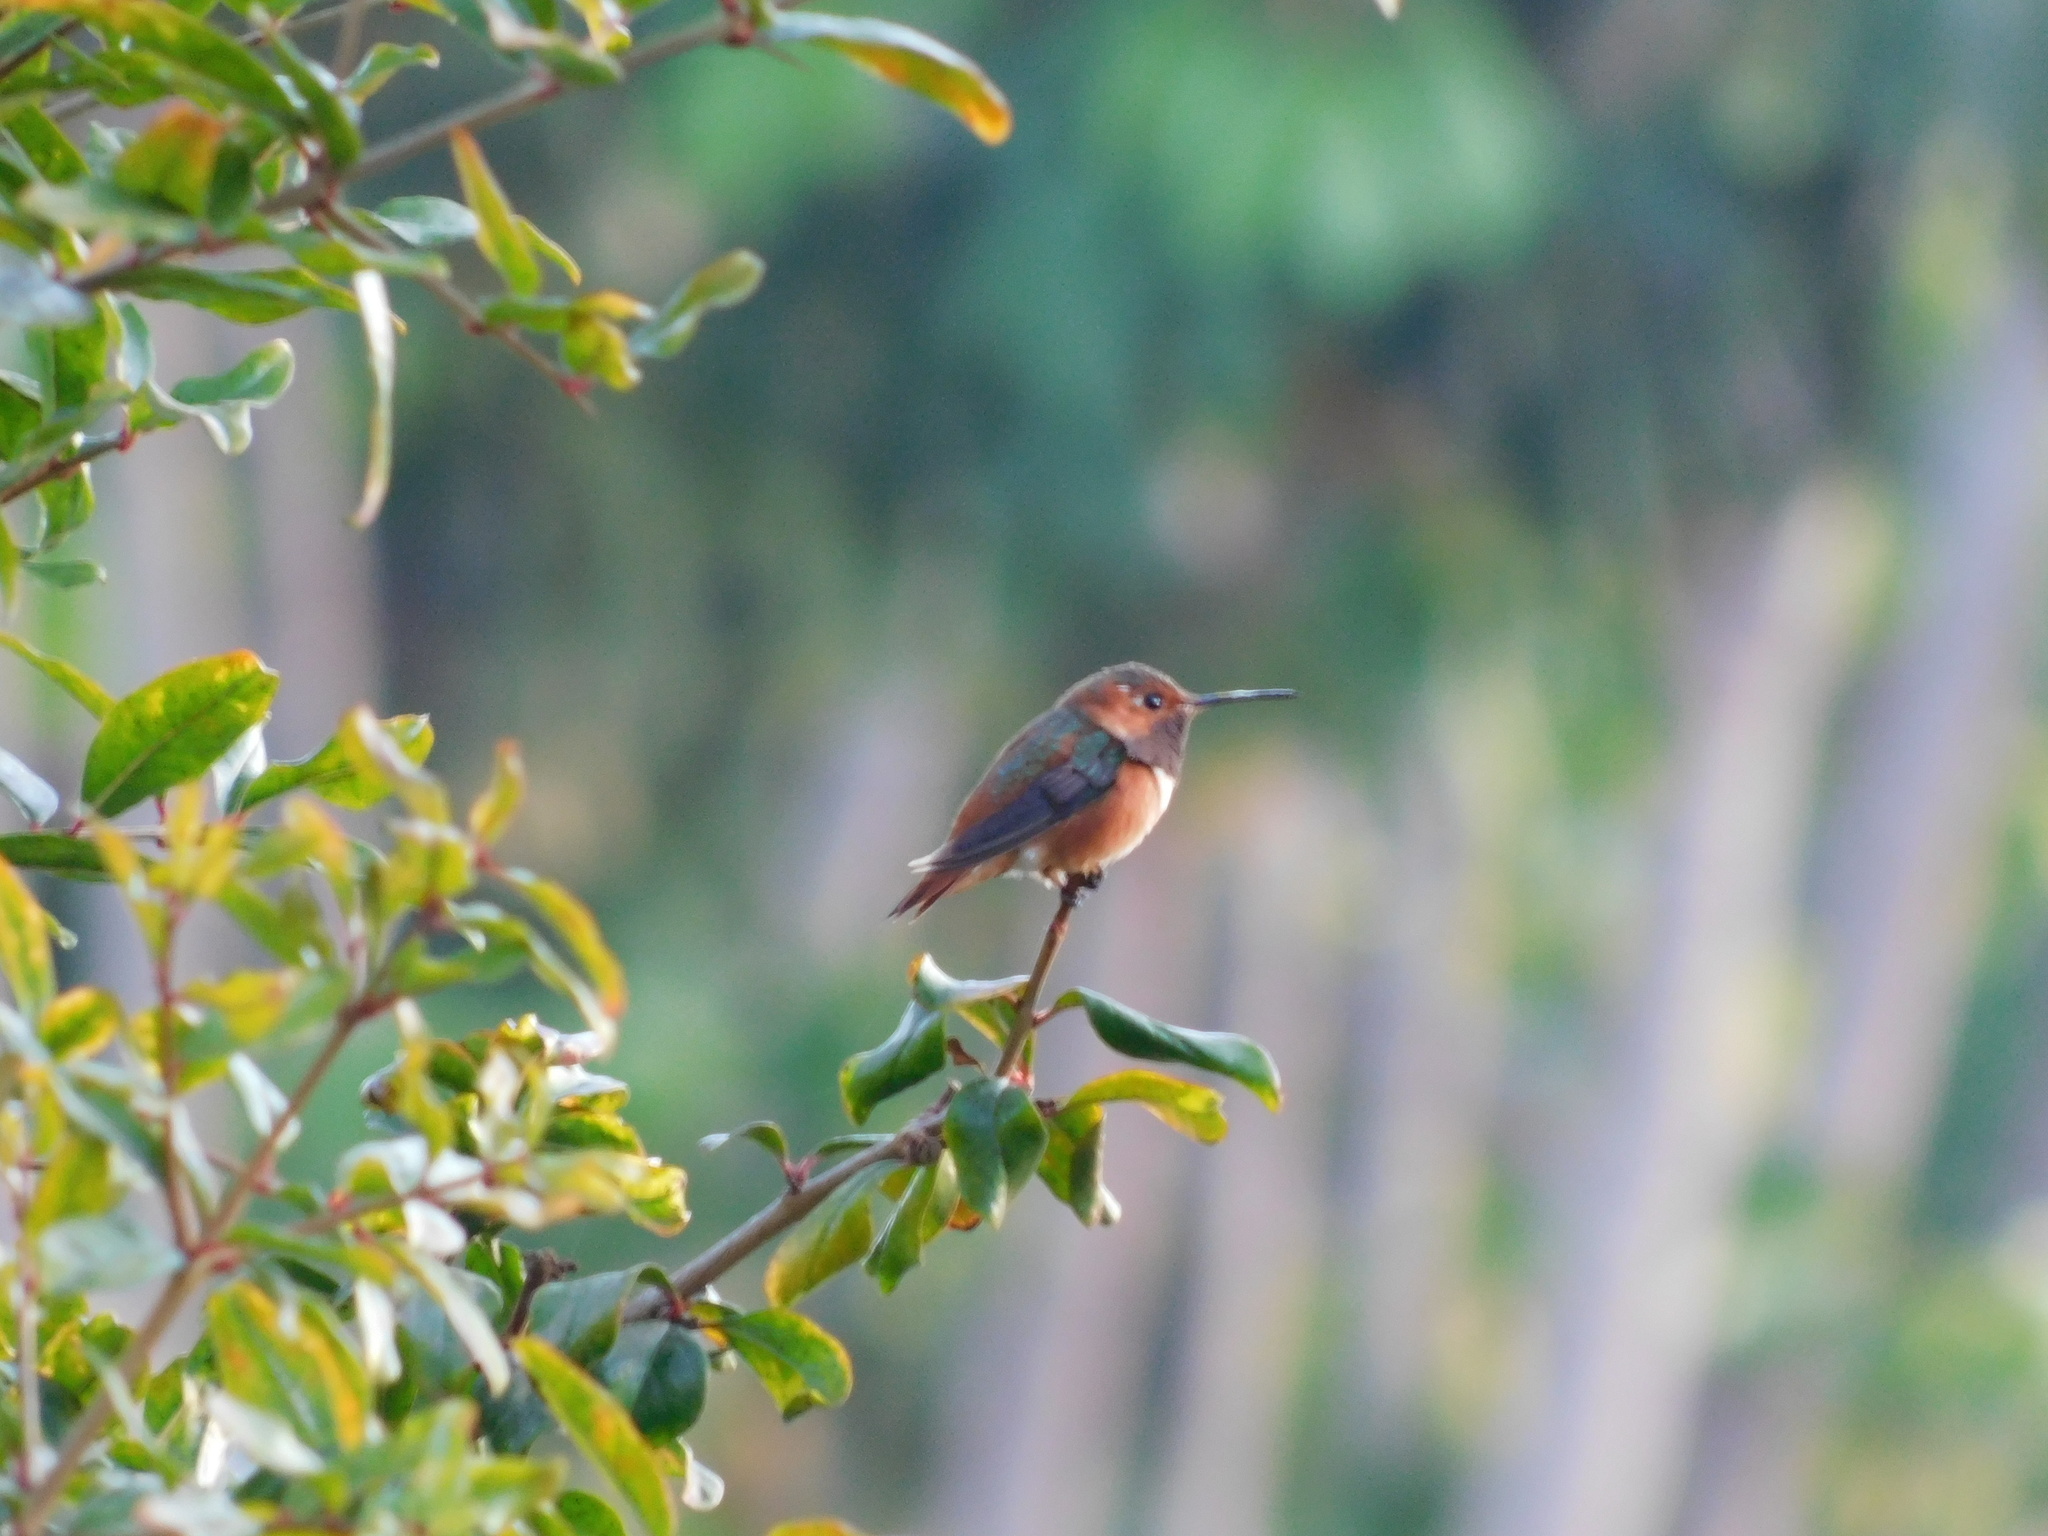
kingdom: Animalia
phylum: Chordata
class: Aves
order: Apodiformes
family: Trochilidae
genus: Selasphorus
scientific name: Selasphorus sasin
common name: Allen's hummingbird
